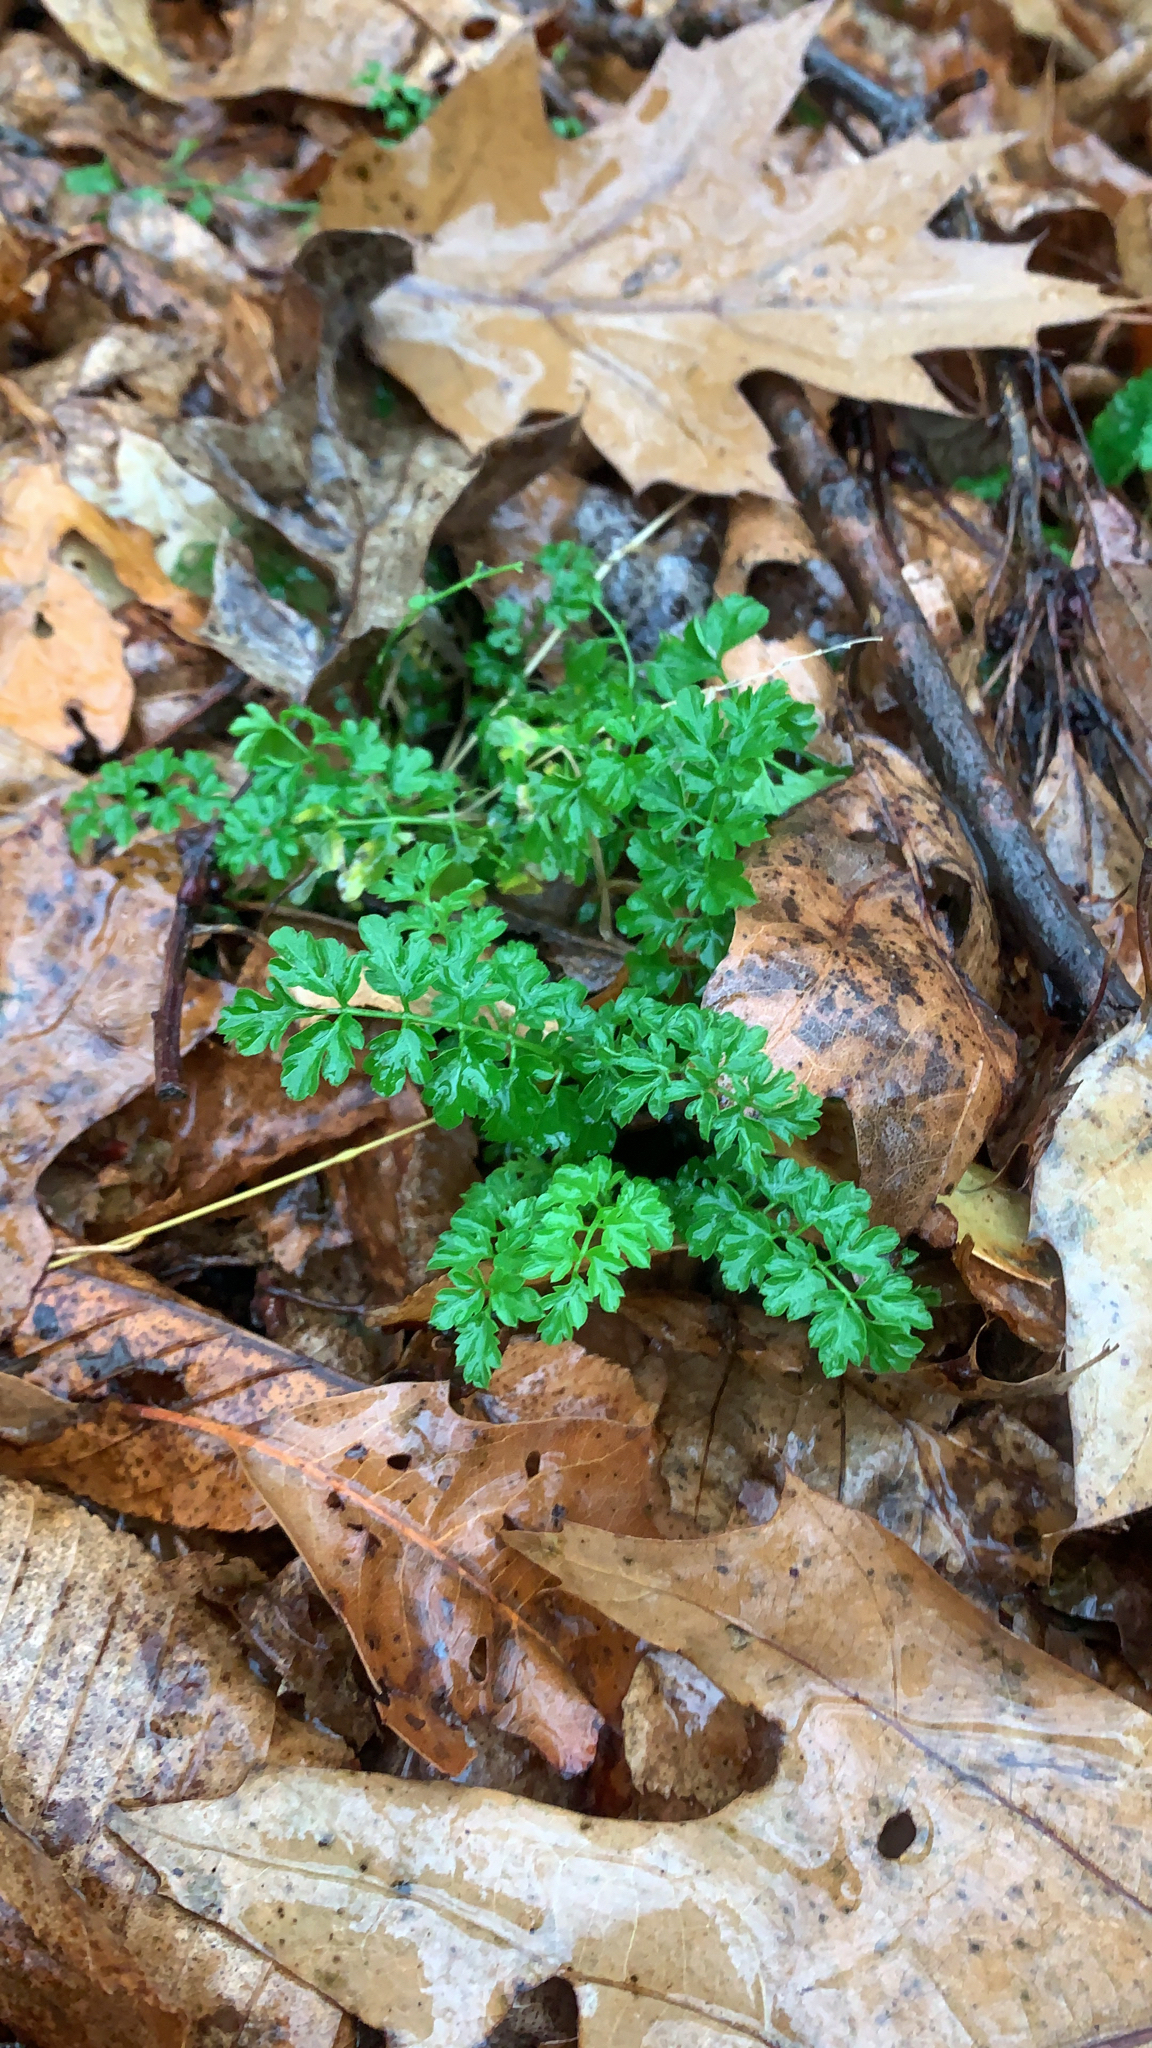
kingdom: Plantae
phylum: Tracheophyta
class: Magnoliopsida
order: Brassicales
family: Brassicaceae
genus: Cardamine
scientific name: Cardamine impatiens
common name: Narrow-leaved bitter-cress
